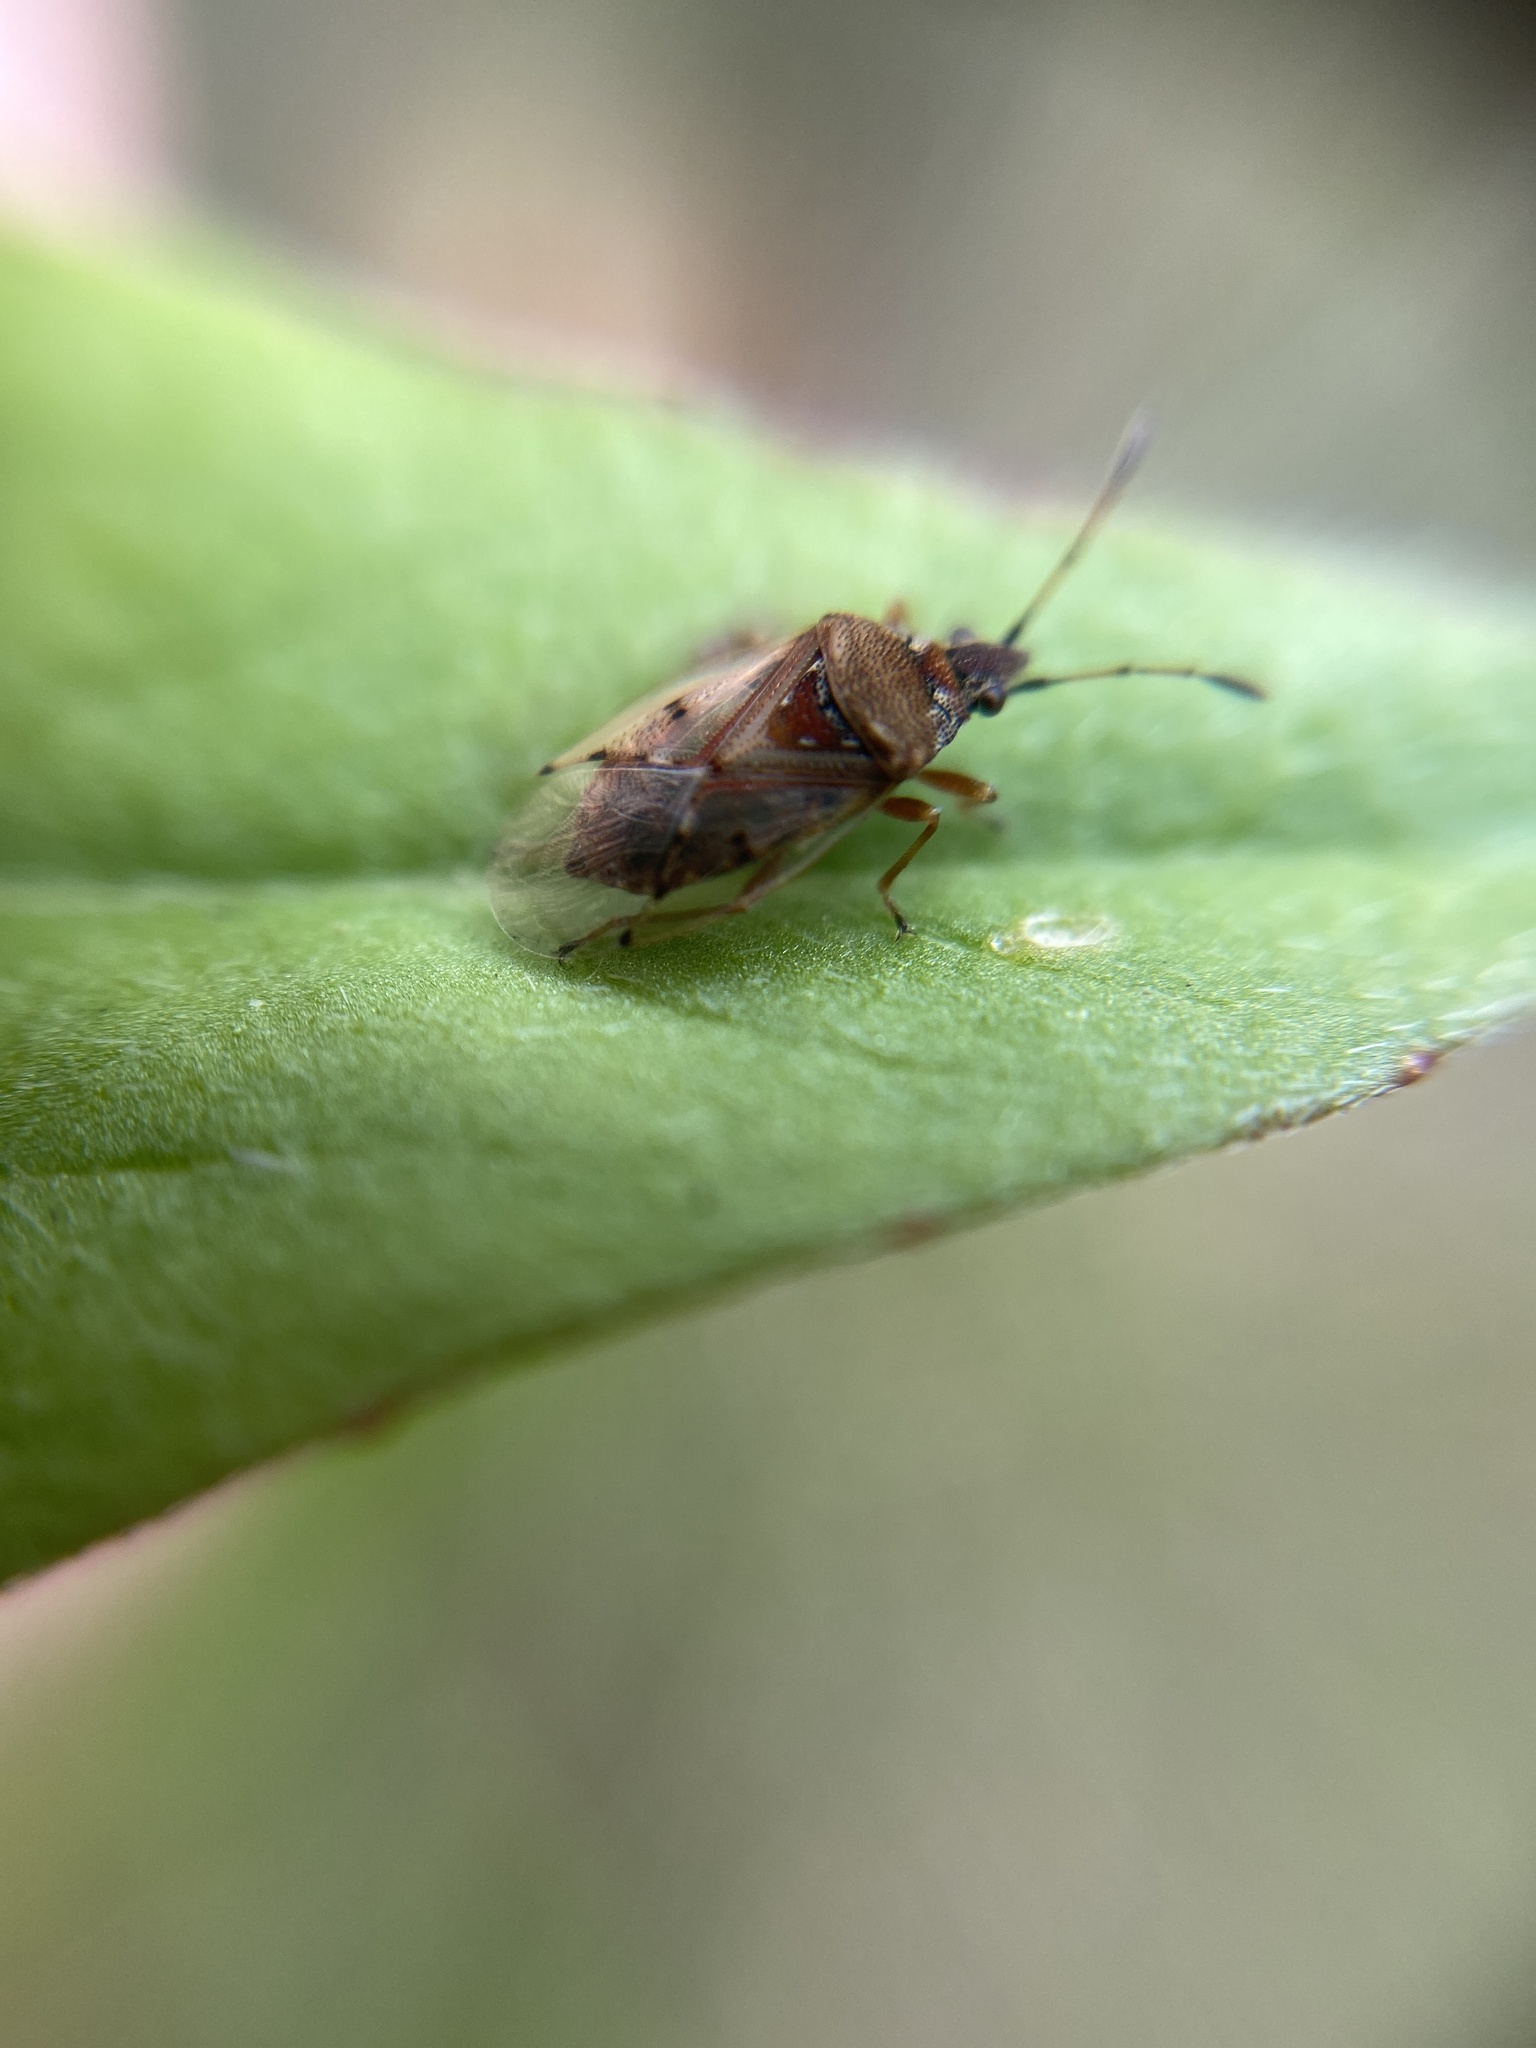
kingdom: Animalia
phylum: Arthropoda
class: Insecta
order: Hemiptera
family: Lygaeidae
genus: Kleidocerys
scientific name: Kleidocerys resedae
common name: Birch catkin bug
